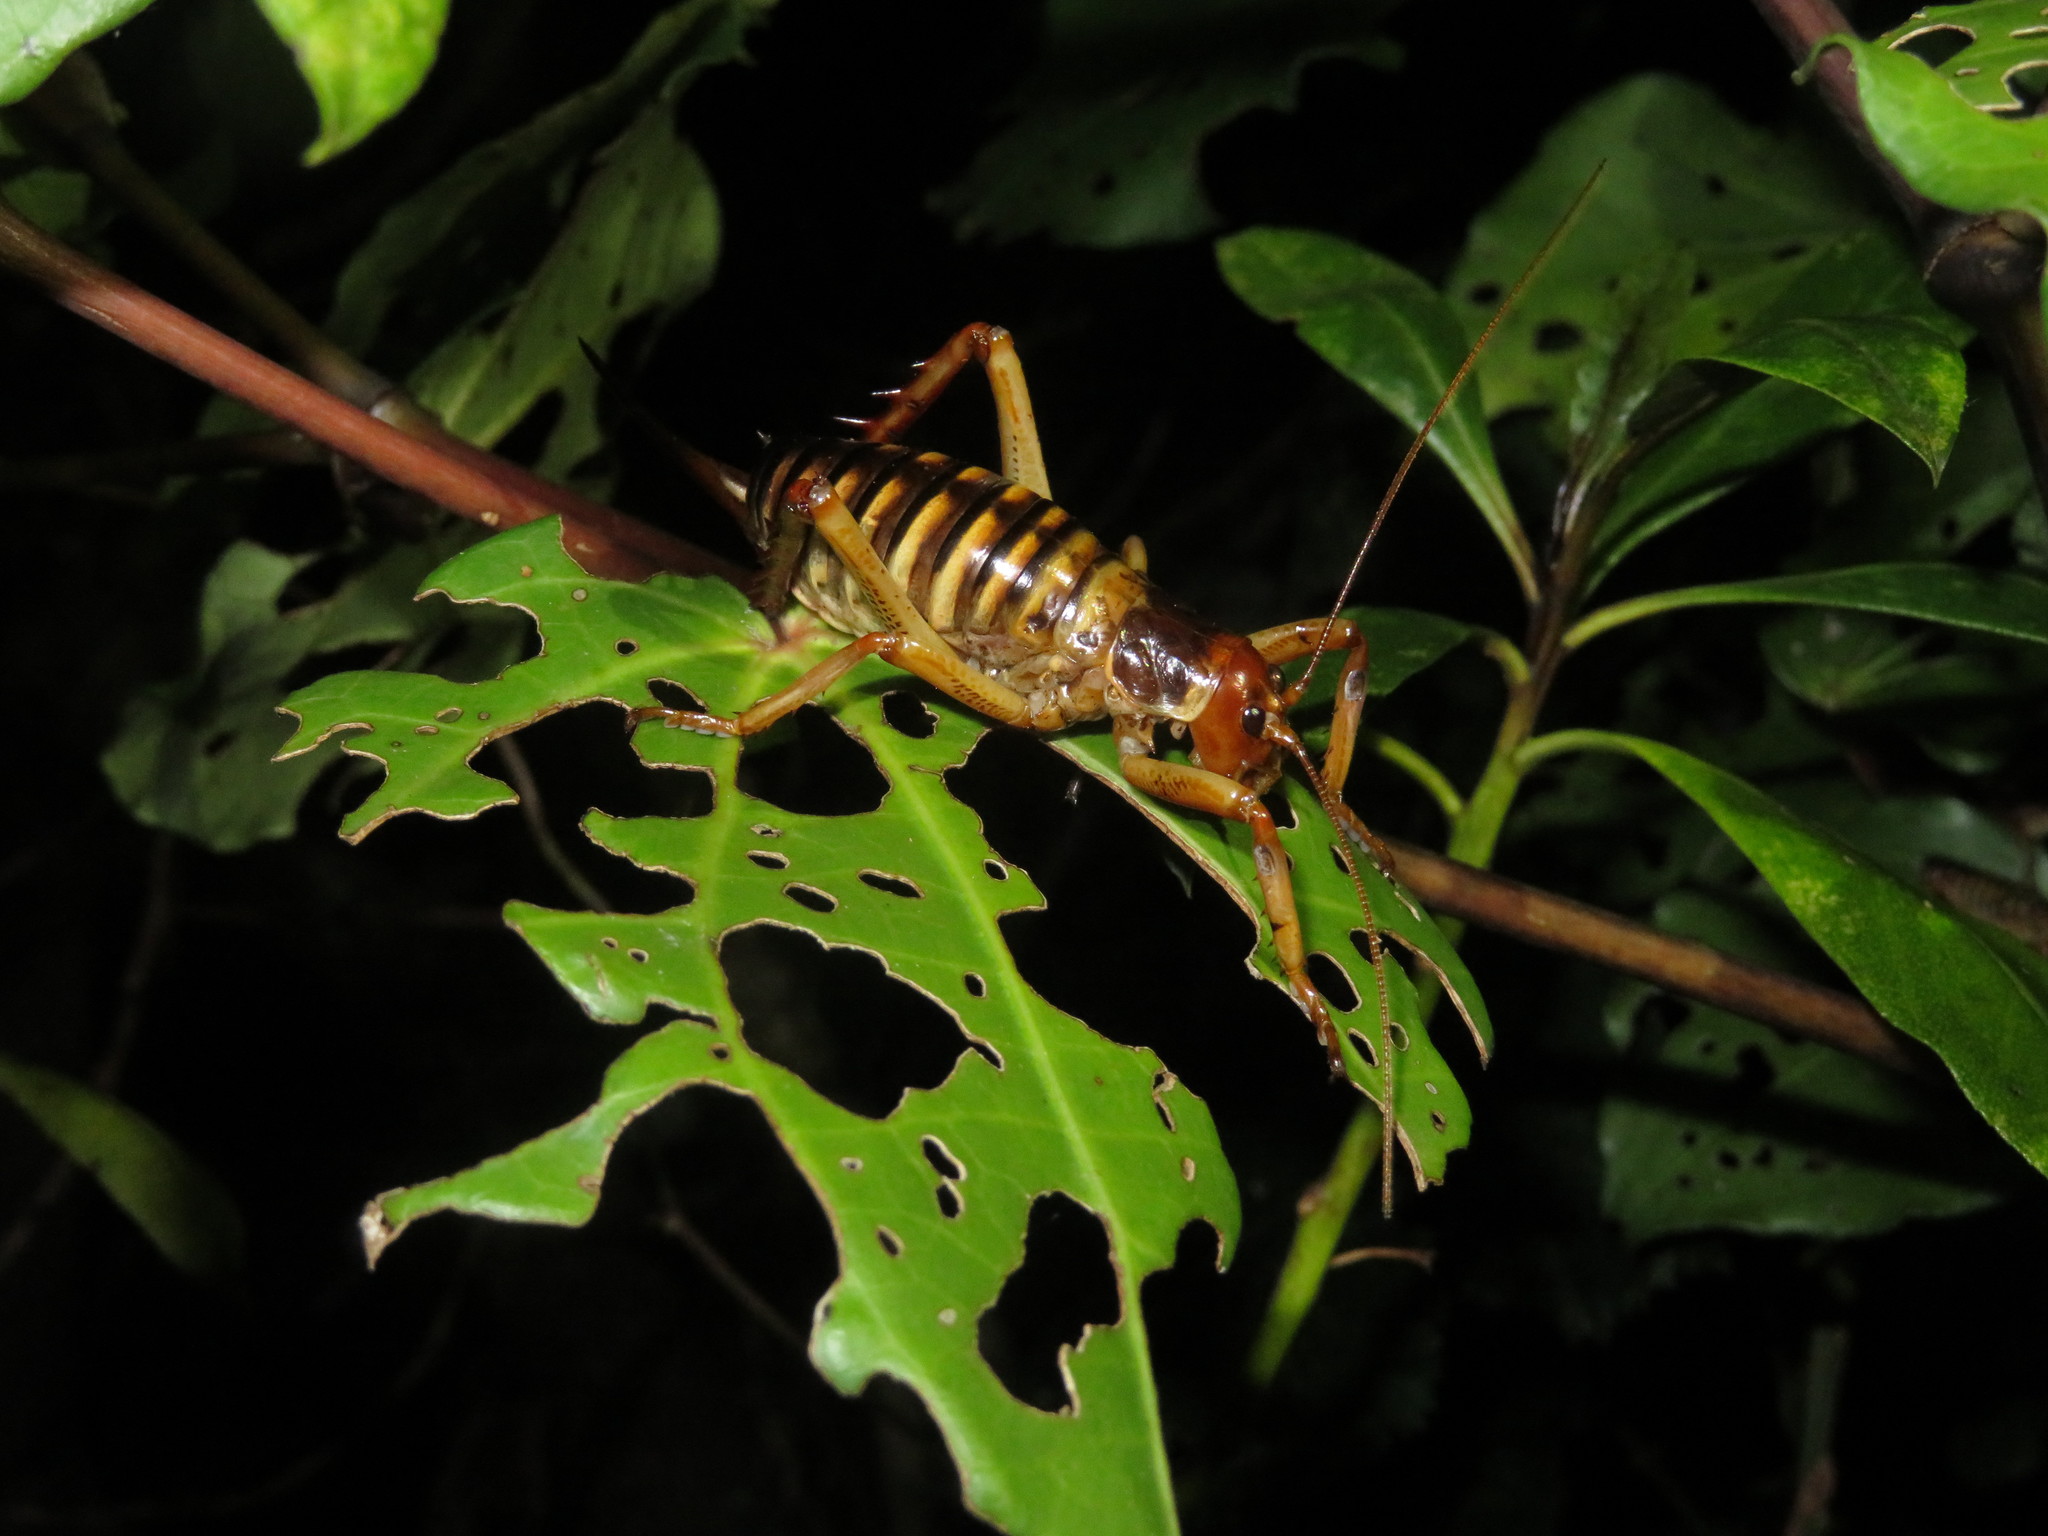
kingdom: Animalia
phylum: Arthropoda
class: Insecta
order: Orthoptera
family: Anostostomatidae
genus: Hemideina
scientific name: Hemideina crassidens
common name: Wellington tree weta
